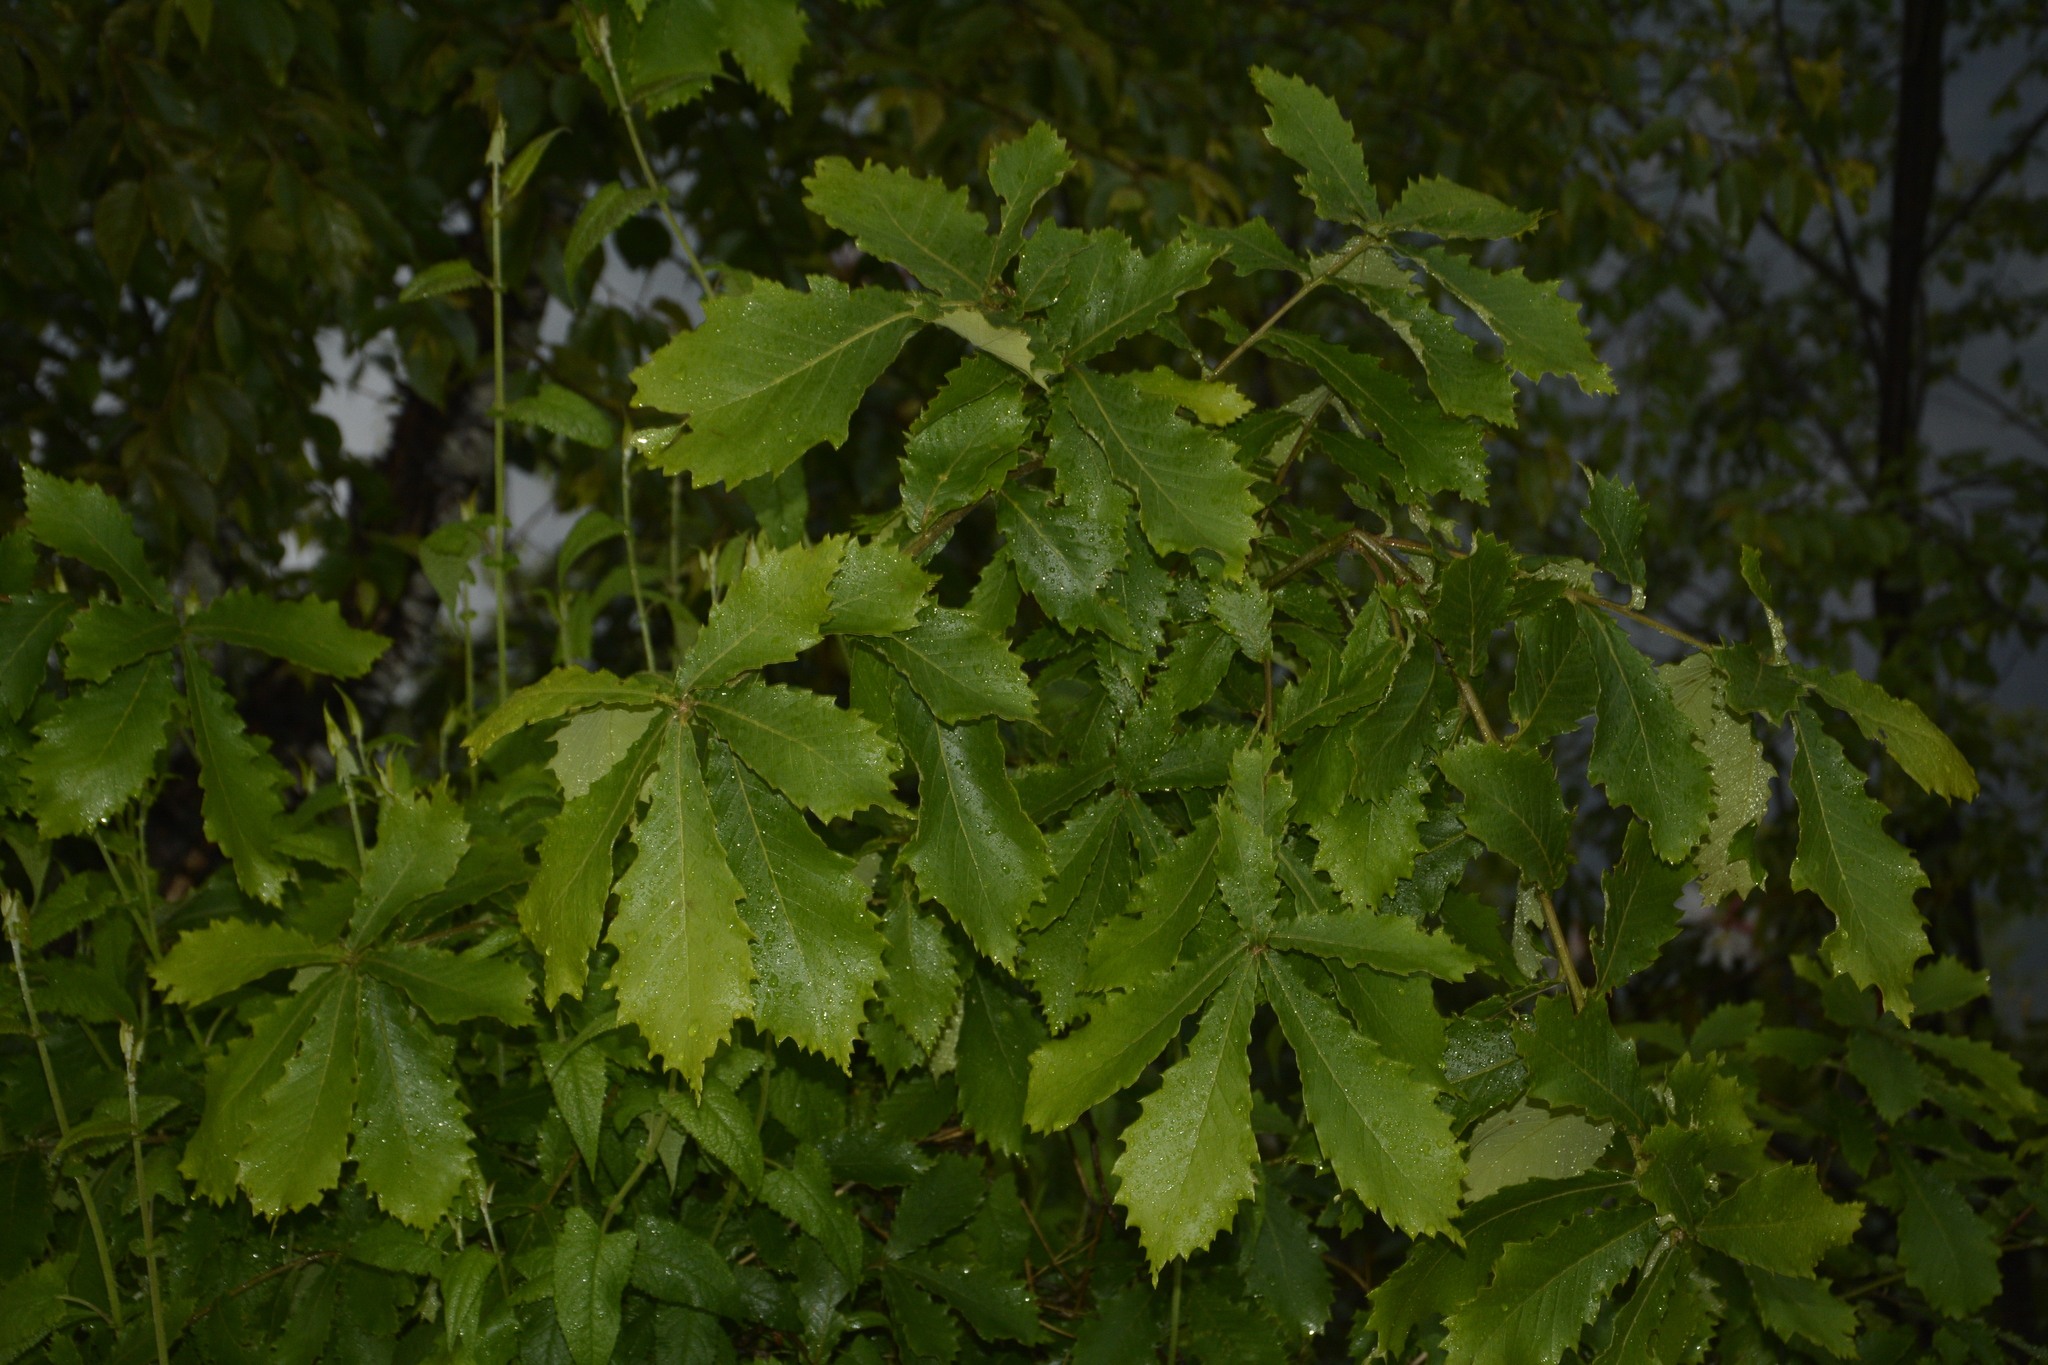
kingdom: Plantae
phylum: Tracheophyta
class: Magnoliopsida
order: Fagales
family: Fagaceae
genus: Quercus
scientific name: Quercus griffithii
